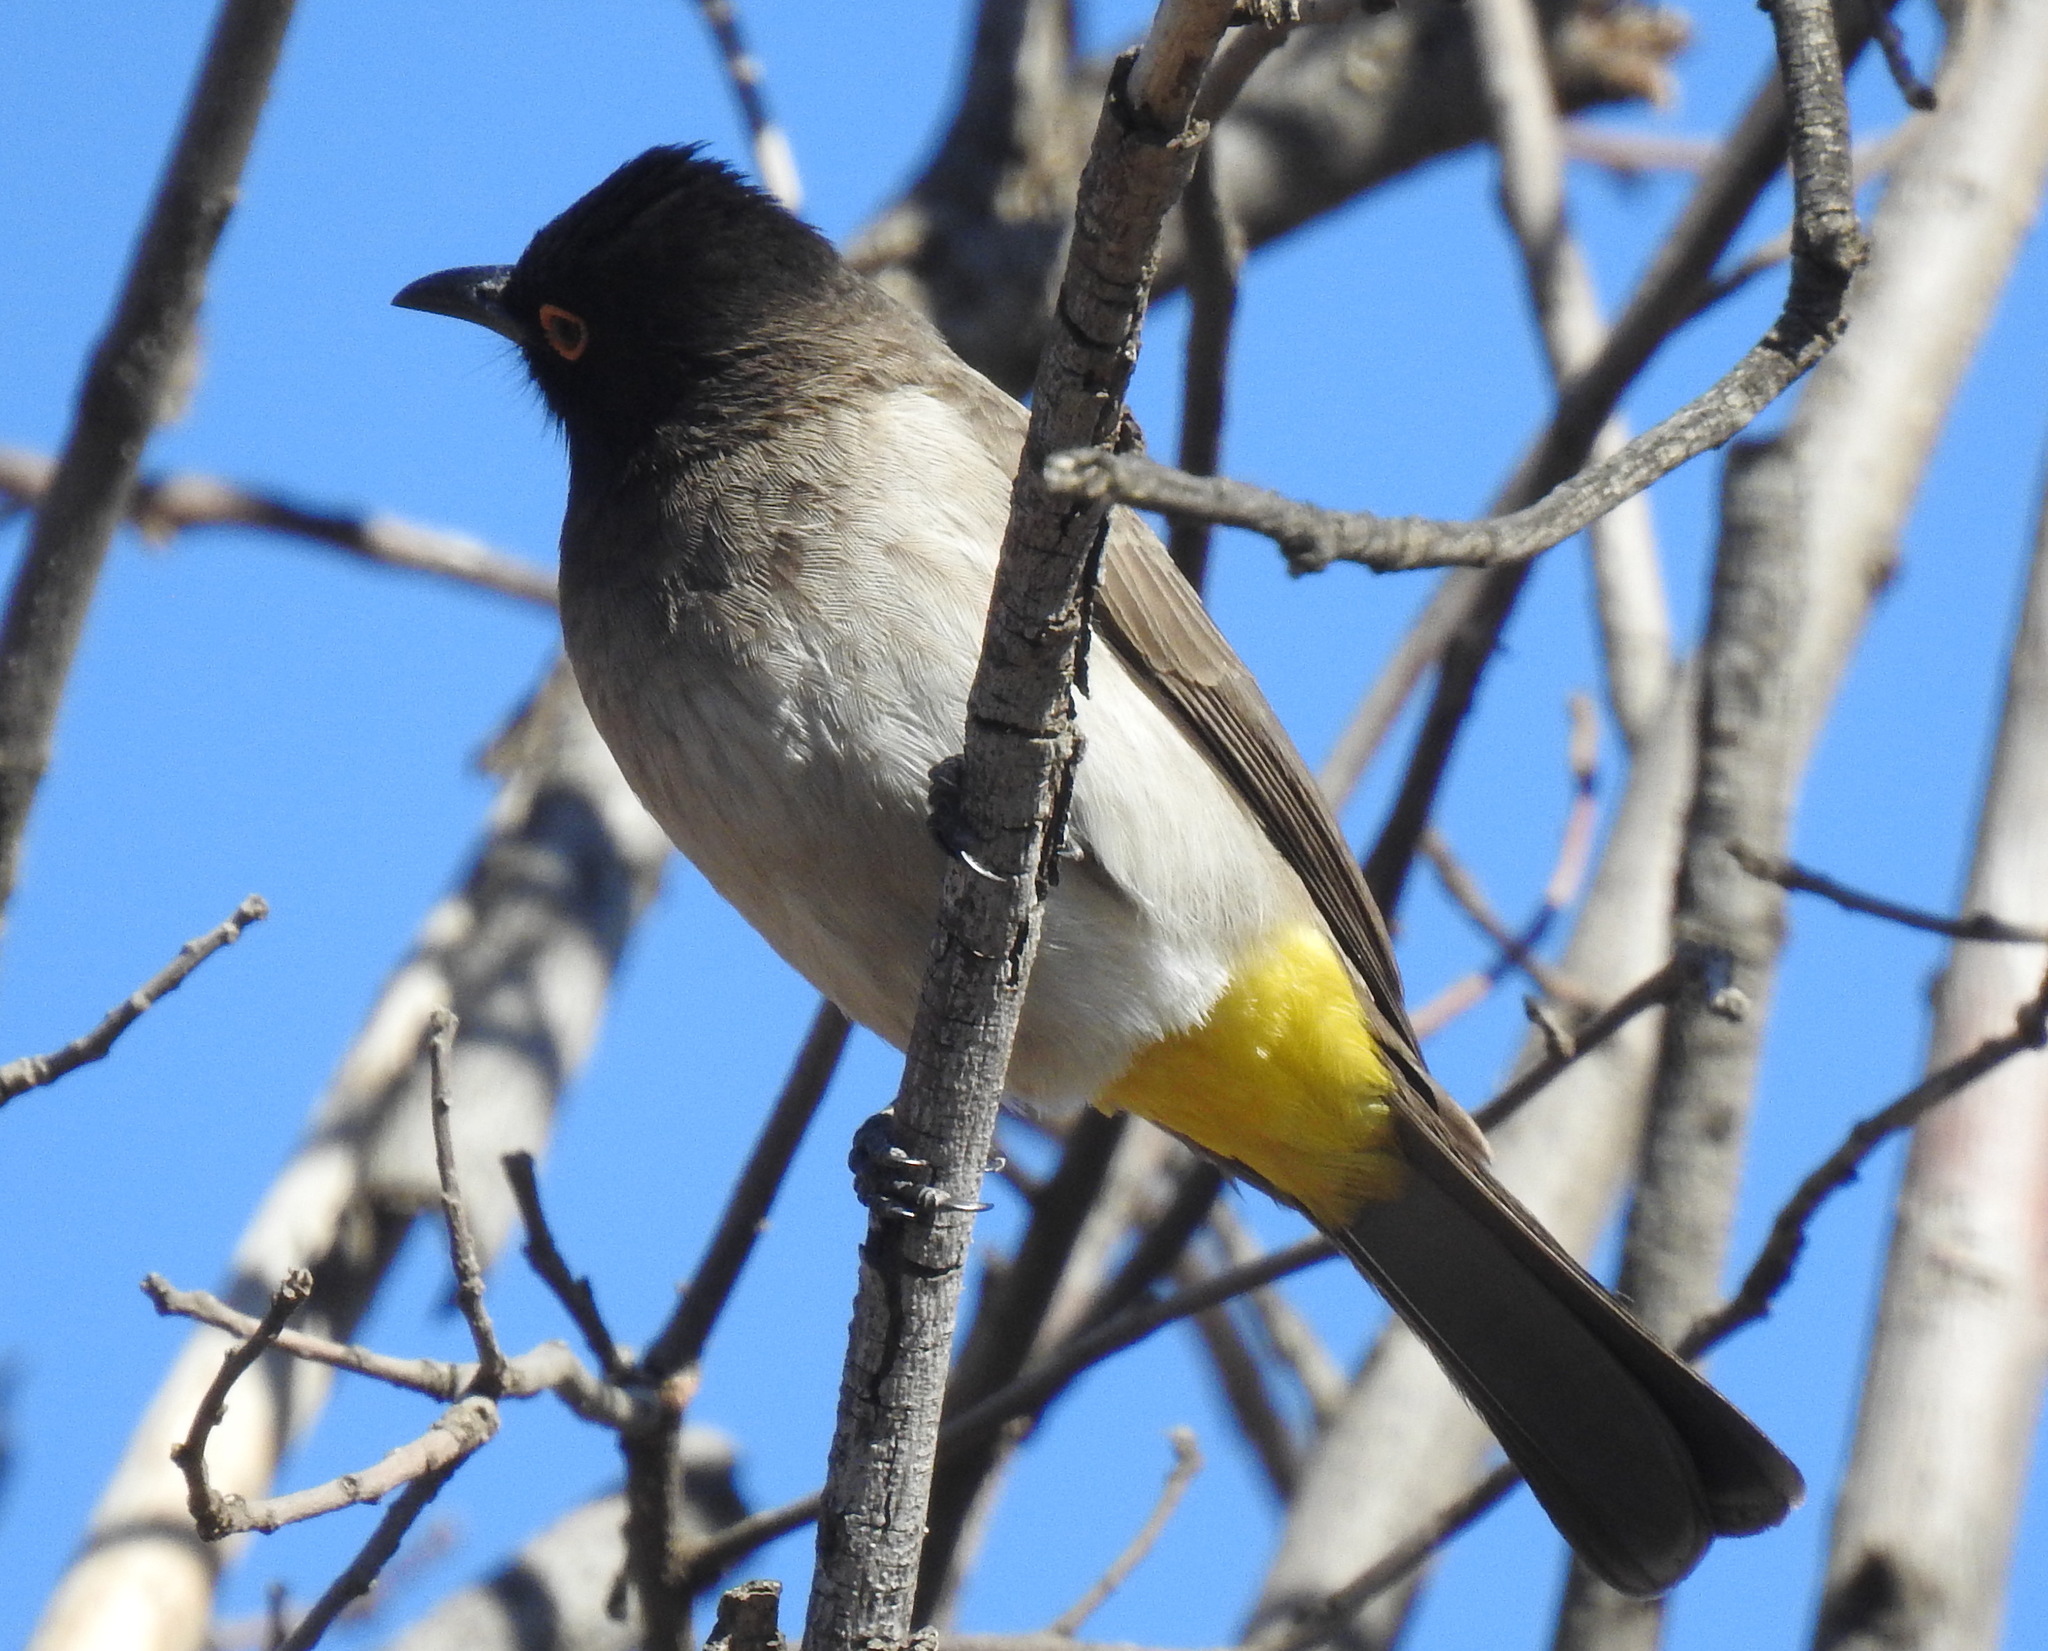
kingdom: Animalia
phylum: Chordata
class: Aves
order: Passeriformes
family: Pycnonotidae
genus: Pycnonotus
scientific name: Pycnonotus nigricans
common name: African red-eyed bulbul
